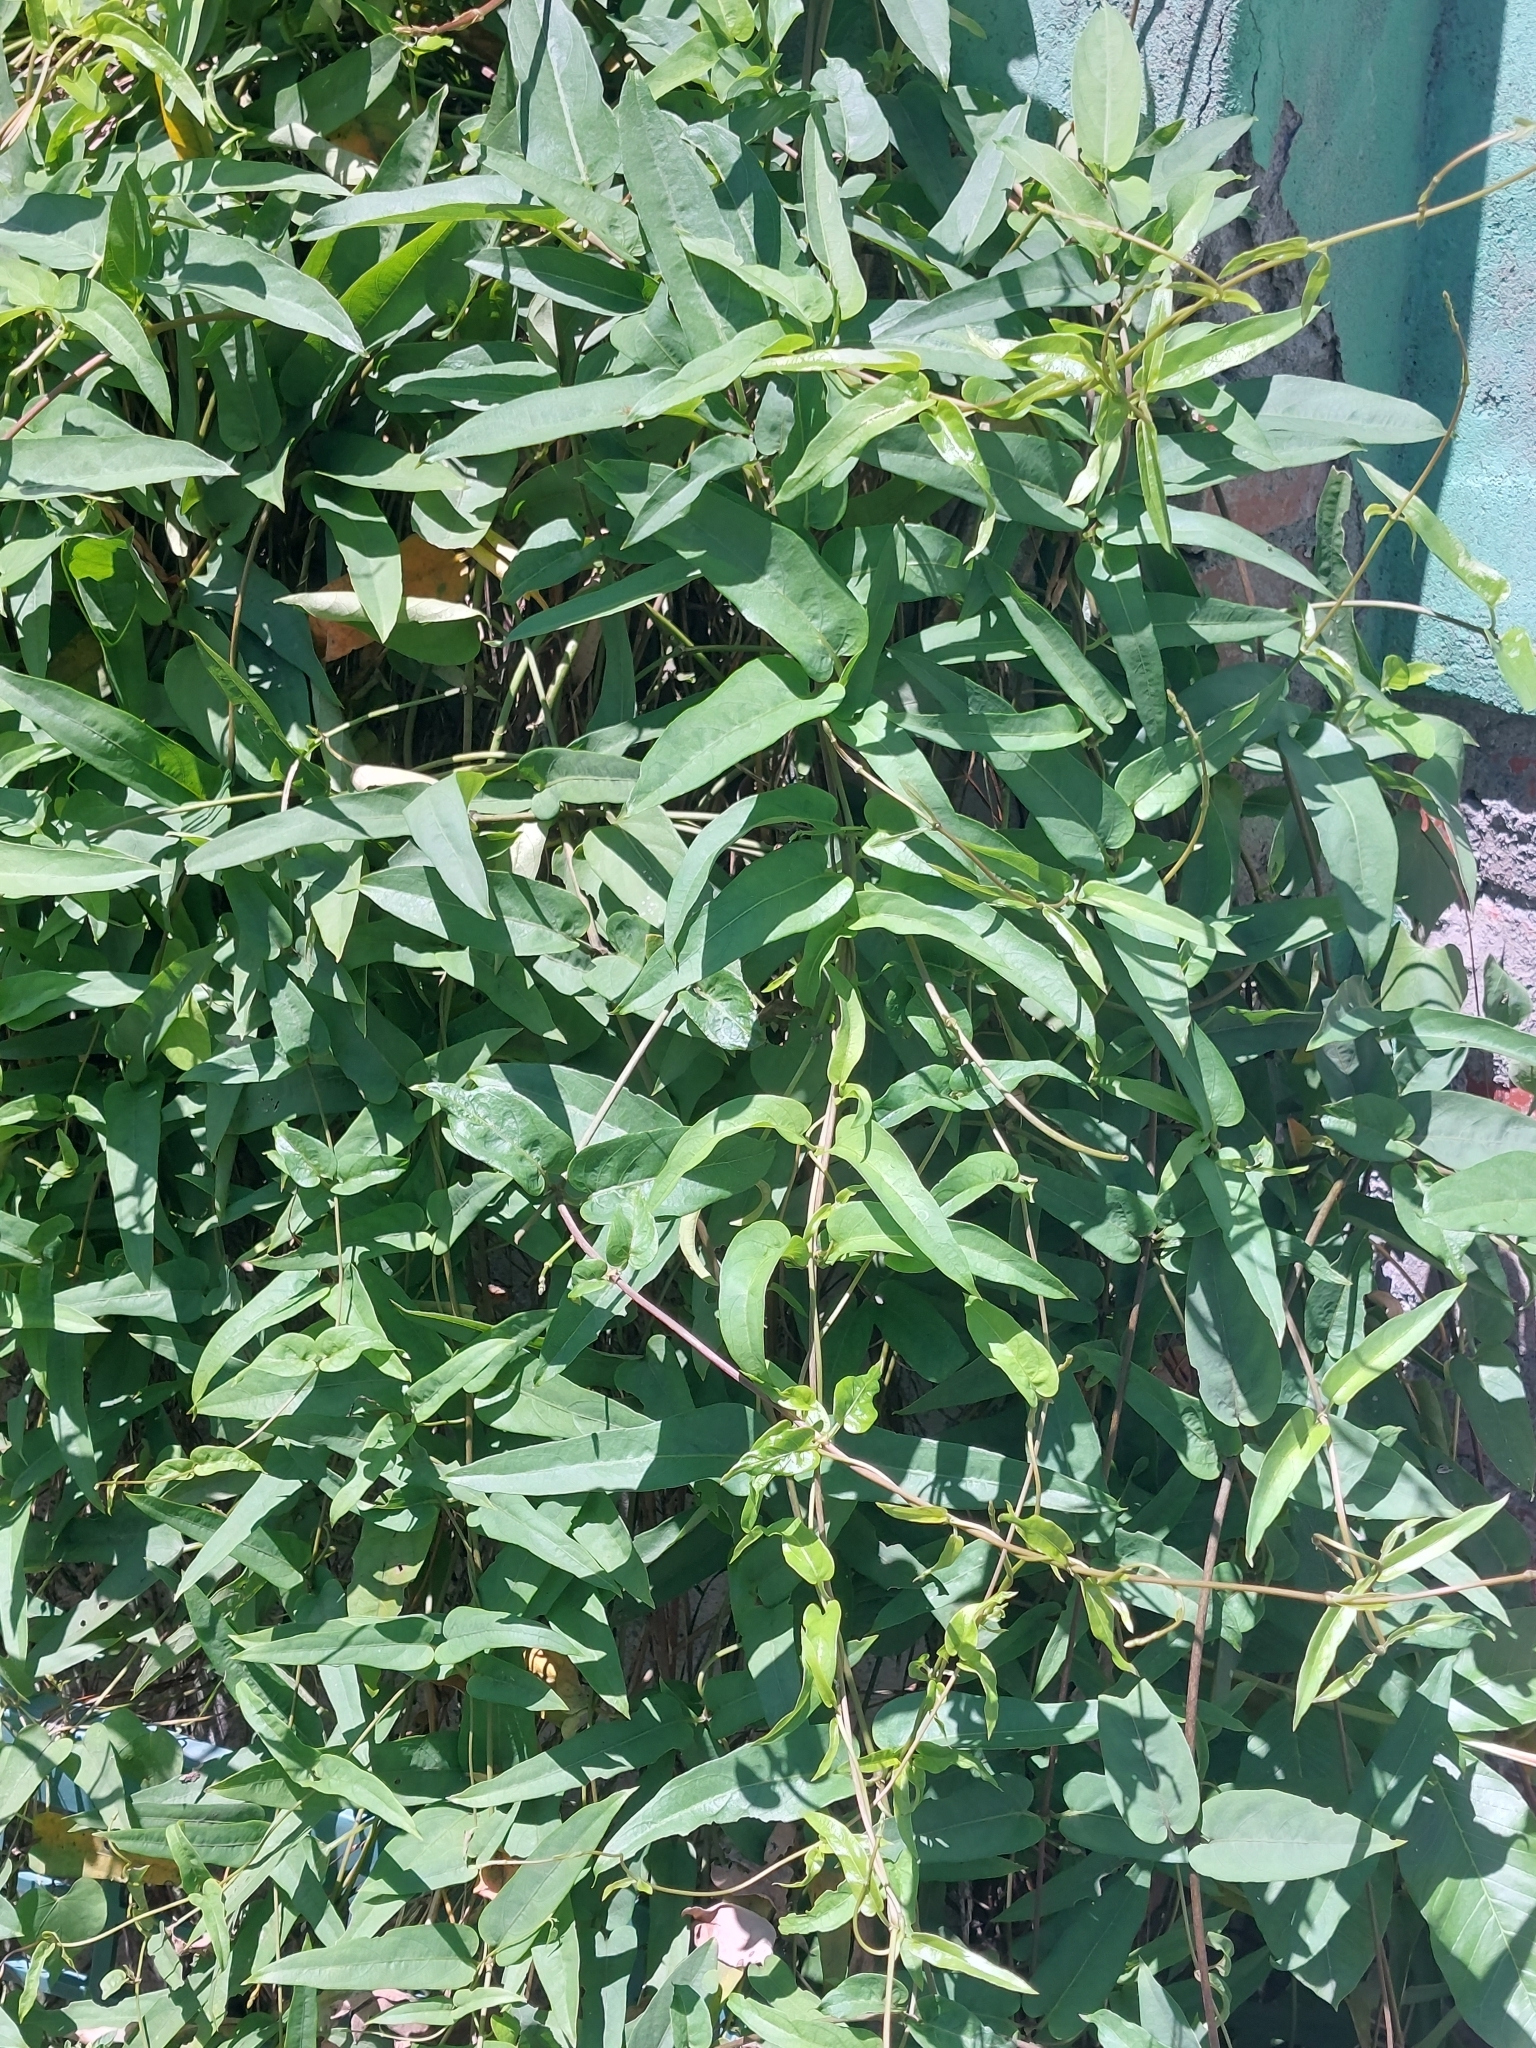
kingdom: Plantae
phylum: Tracheophyta
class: Magnoliopsida
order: Gentianales
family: Rubiaceae
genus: Paederia
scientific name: Paederia foetida
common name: Stinkvine
